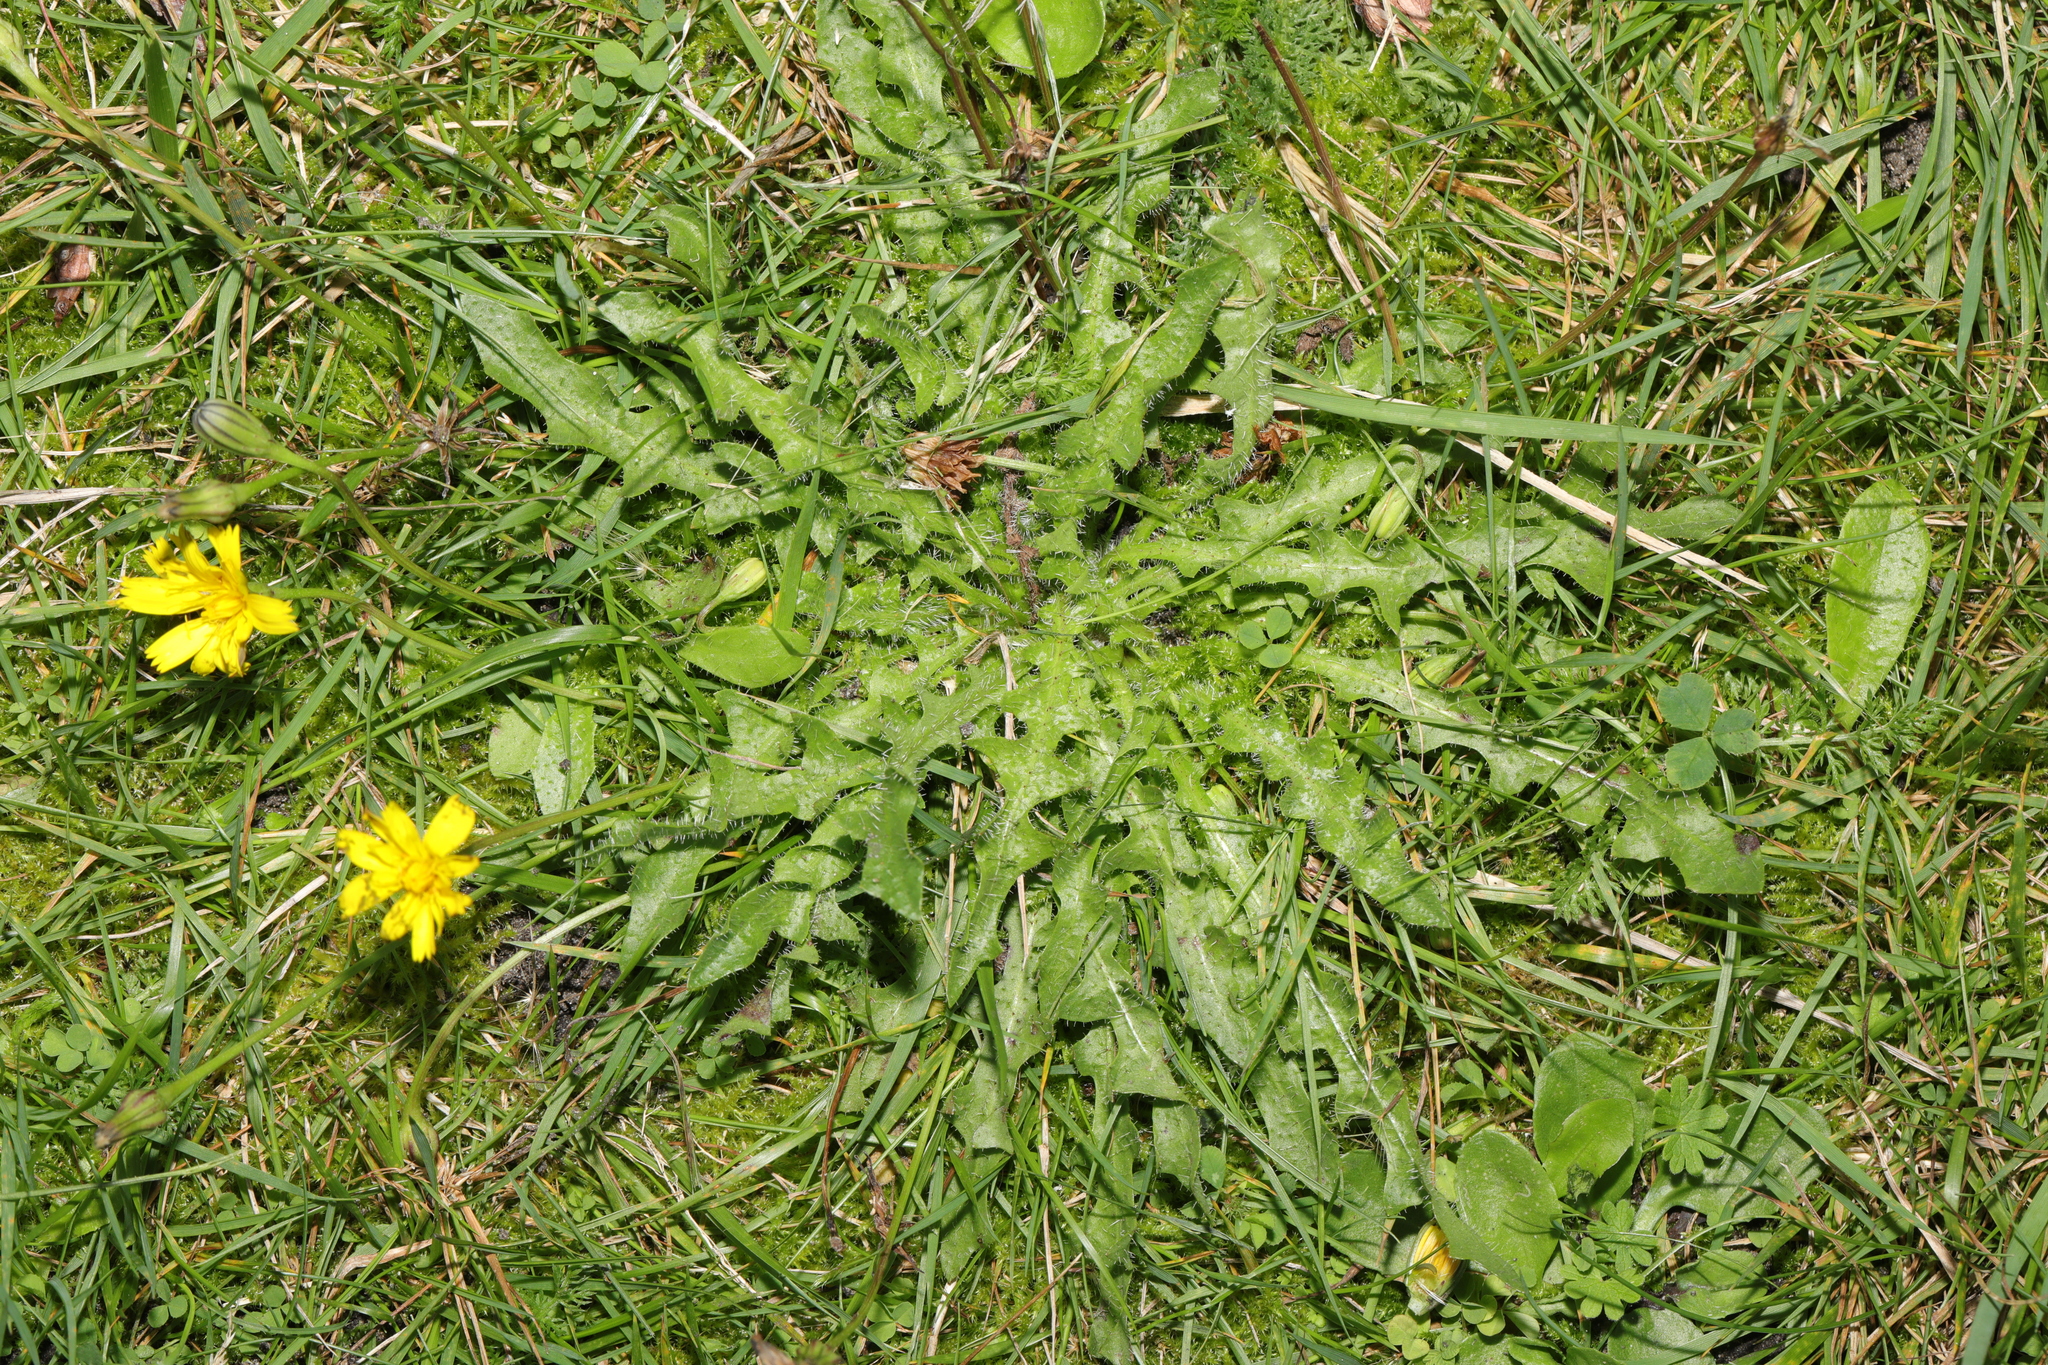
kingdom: Plantae
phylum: Tracheophyta
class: Magnoliopsida
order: Asterales
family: Asteraceae
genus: Hypochaeris
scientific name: Hypochaeris radicata
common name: Flatweed
